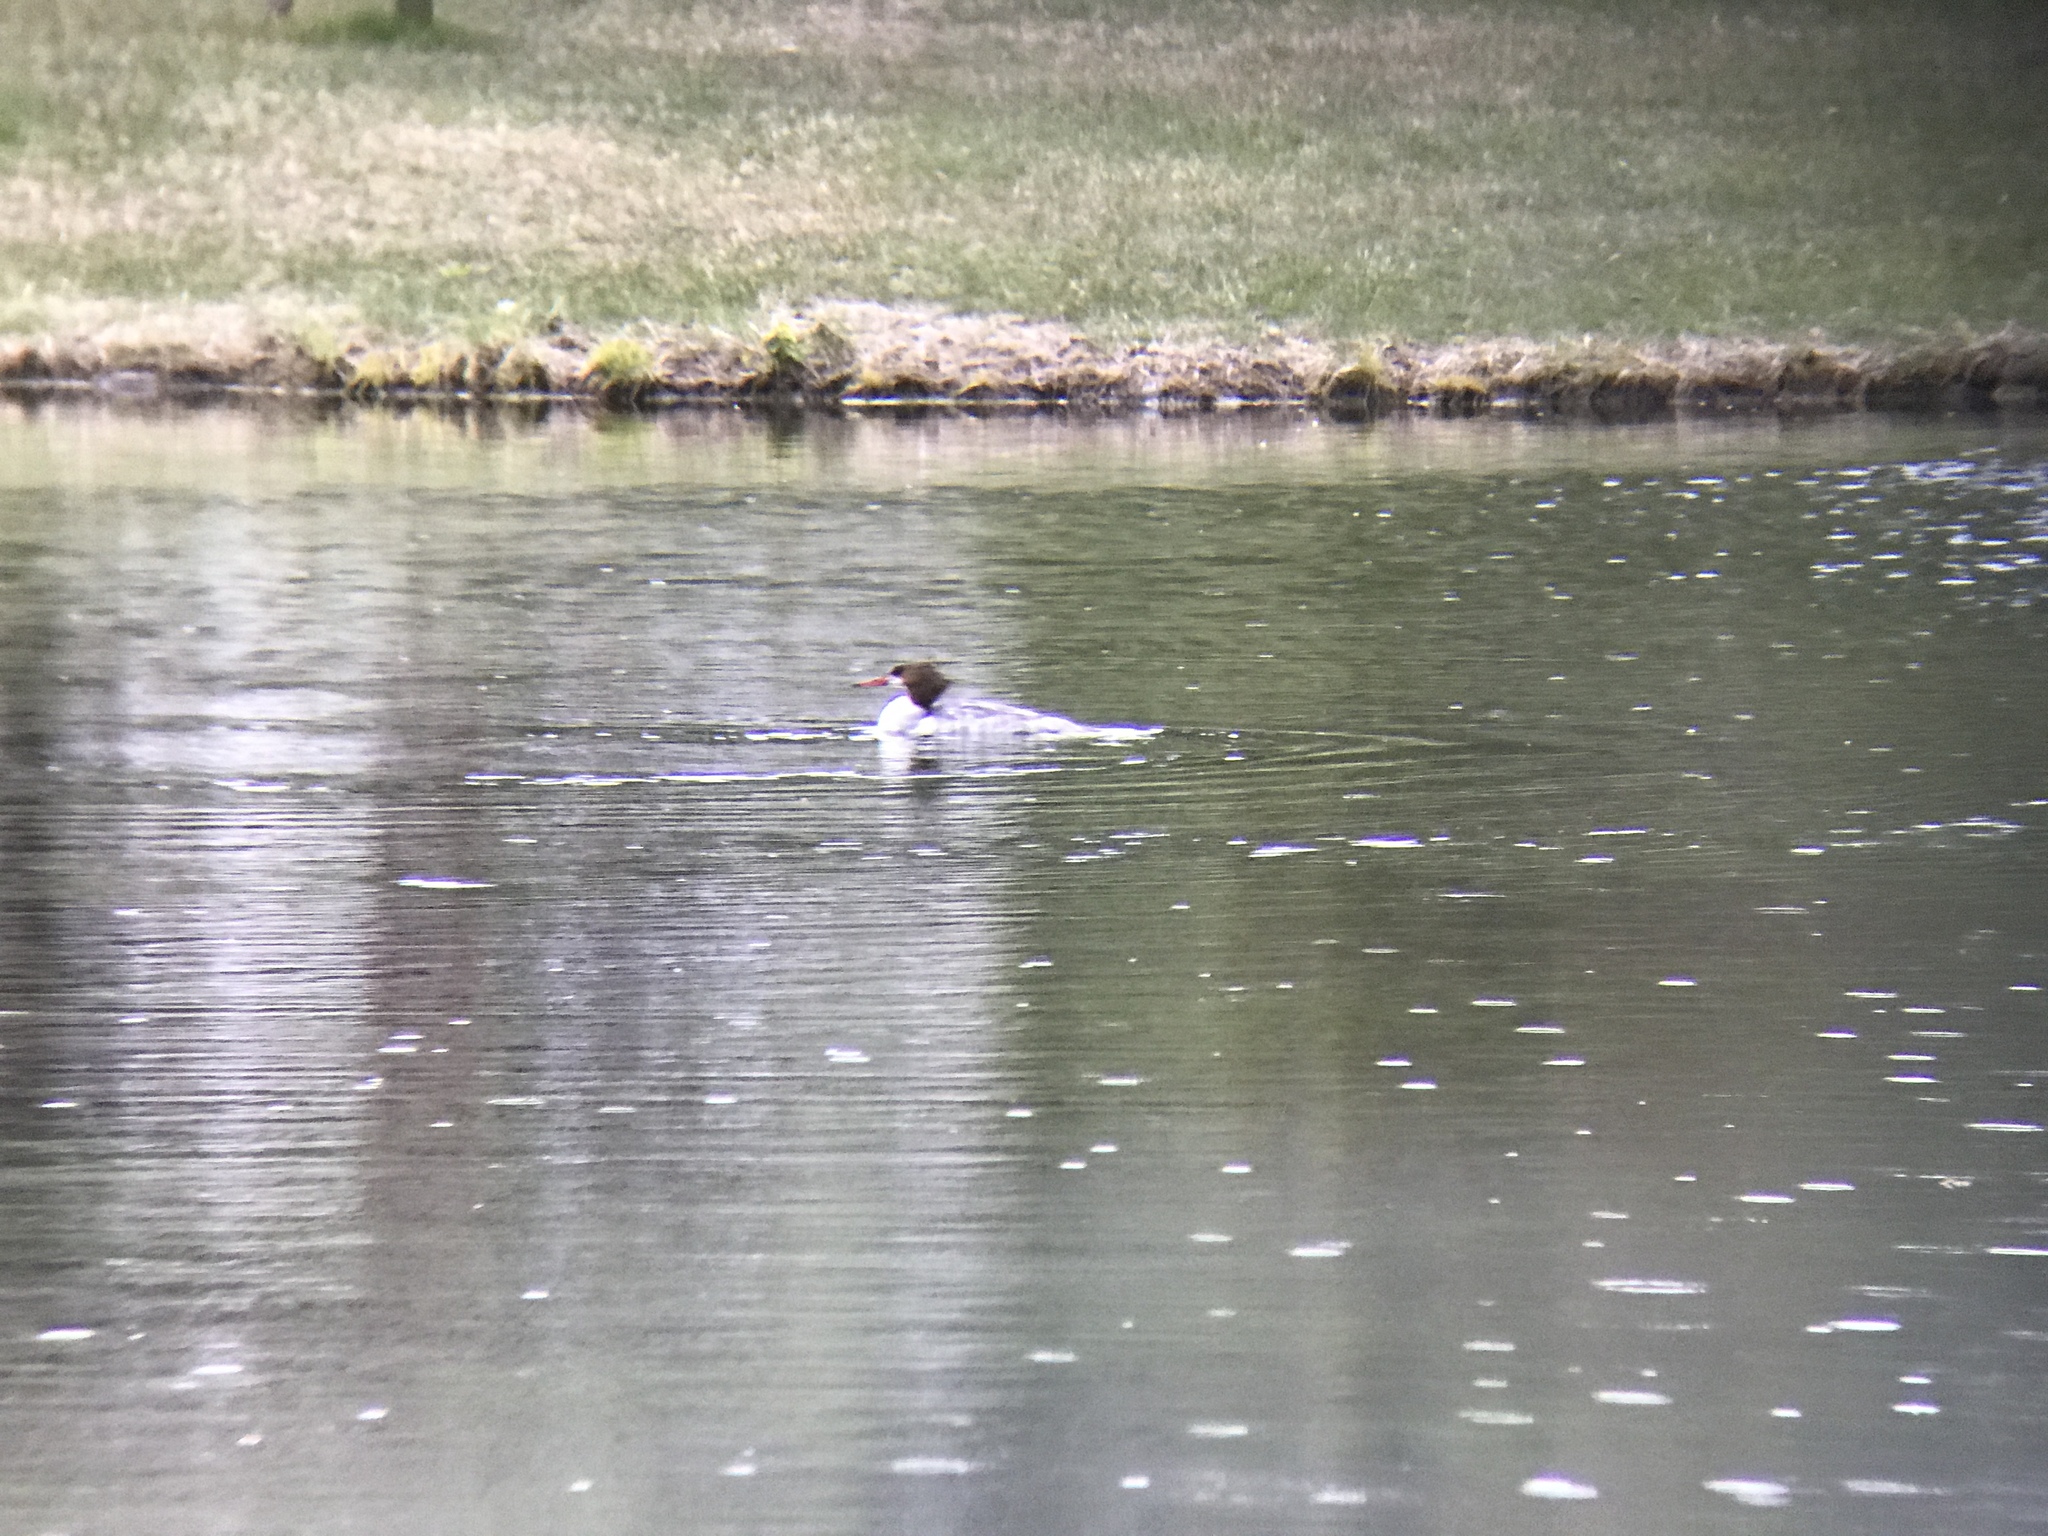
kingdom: Animalia
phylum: Chordata
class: Aves
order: Anseriformes
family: Anatidae
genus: Mergus
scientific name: Mergus merganser
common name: Common merganser
